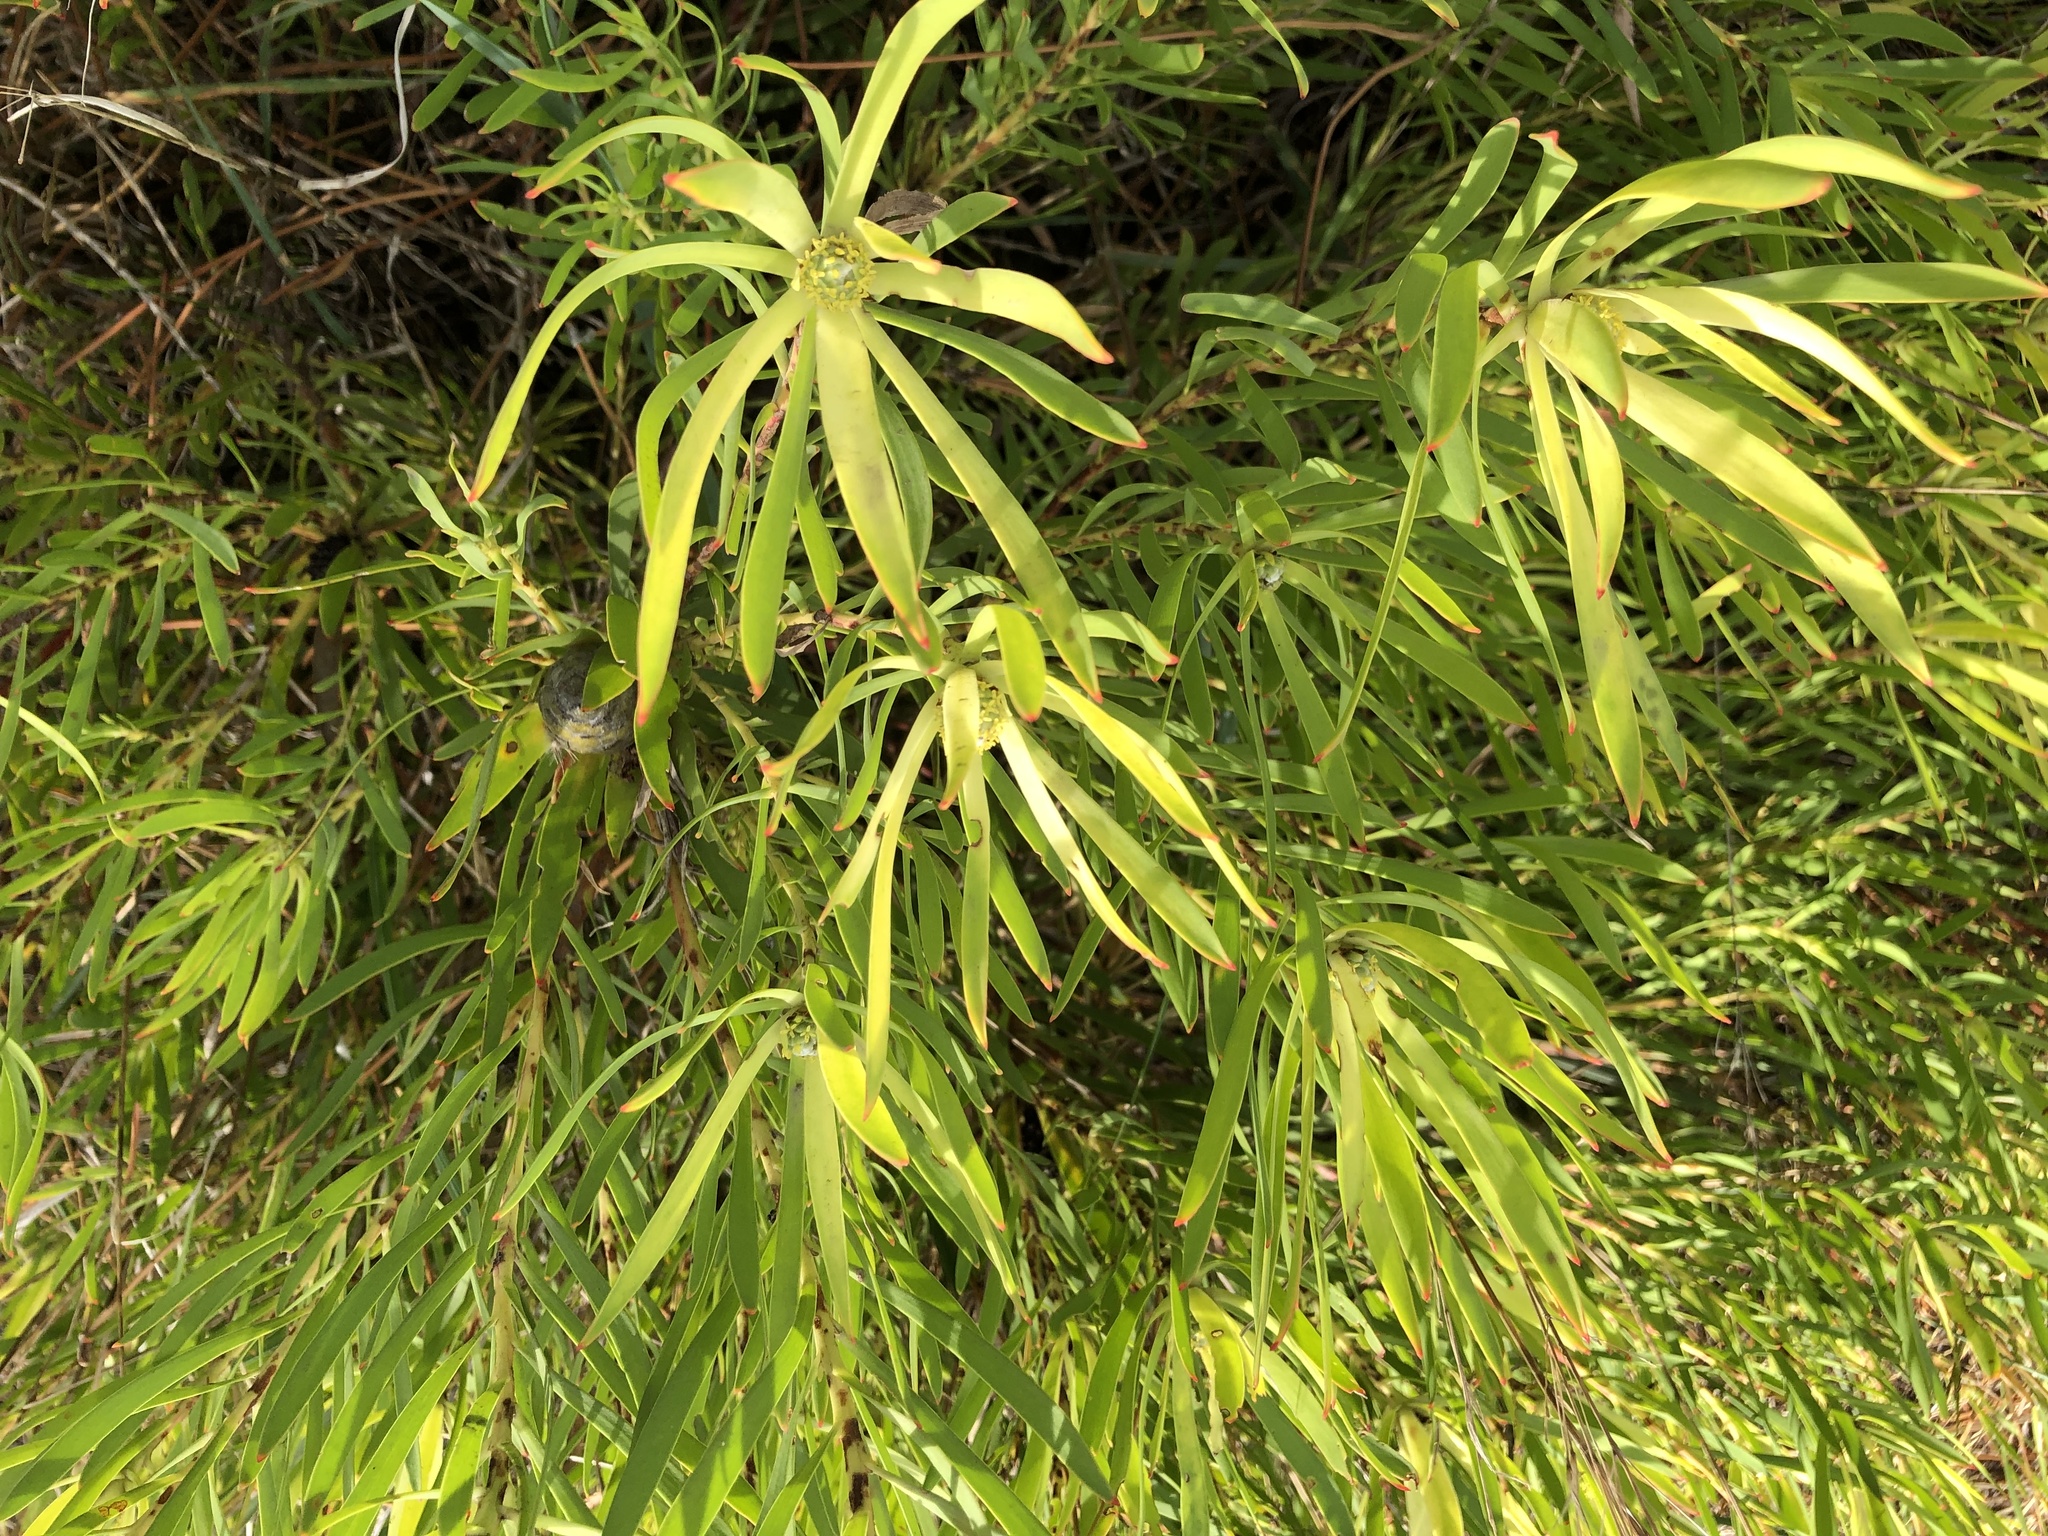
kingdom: Plantae
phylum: Tracheophyta
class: Magnoliopsida
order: Proteales
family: Proteaceae
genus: Leucadendron
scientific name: Leucadendron salignum
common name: Common sunshine conebush
